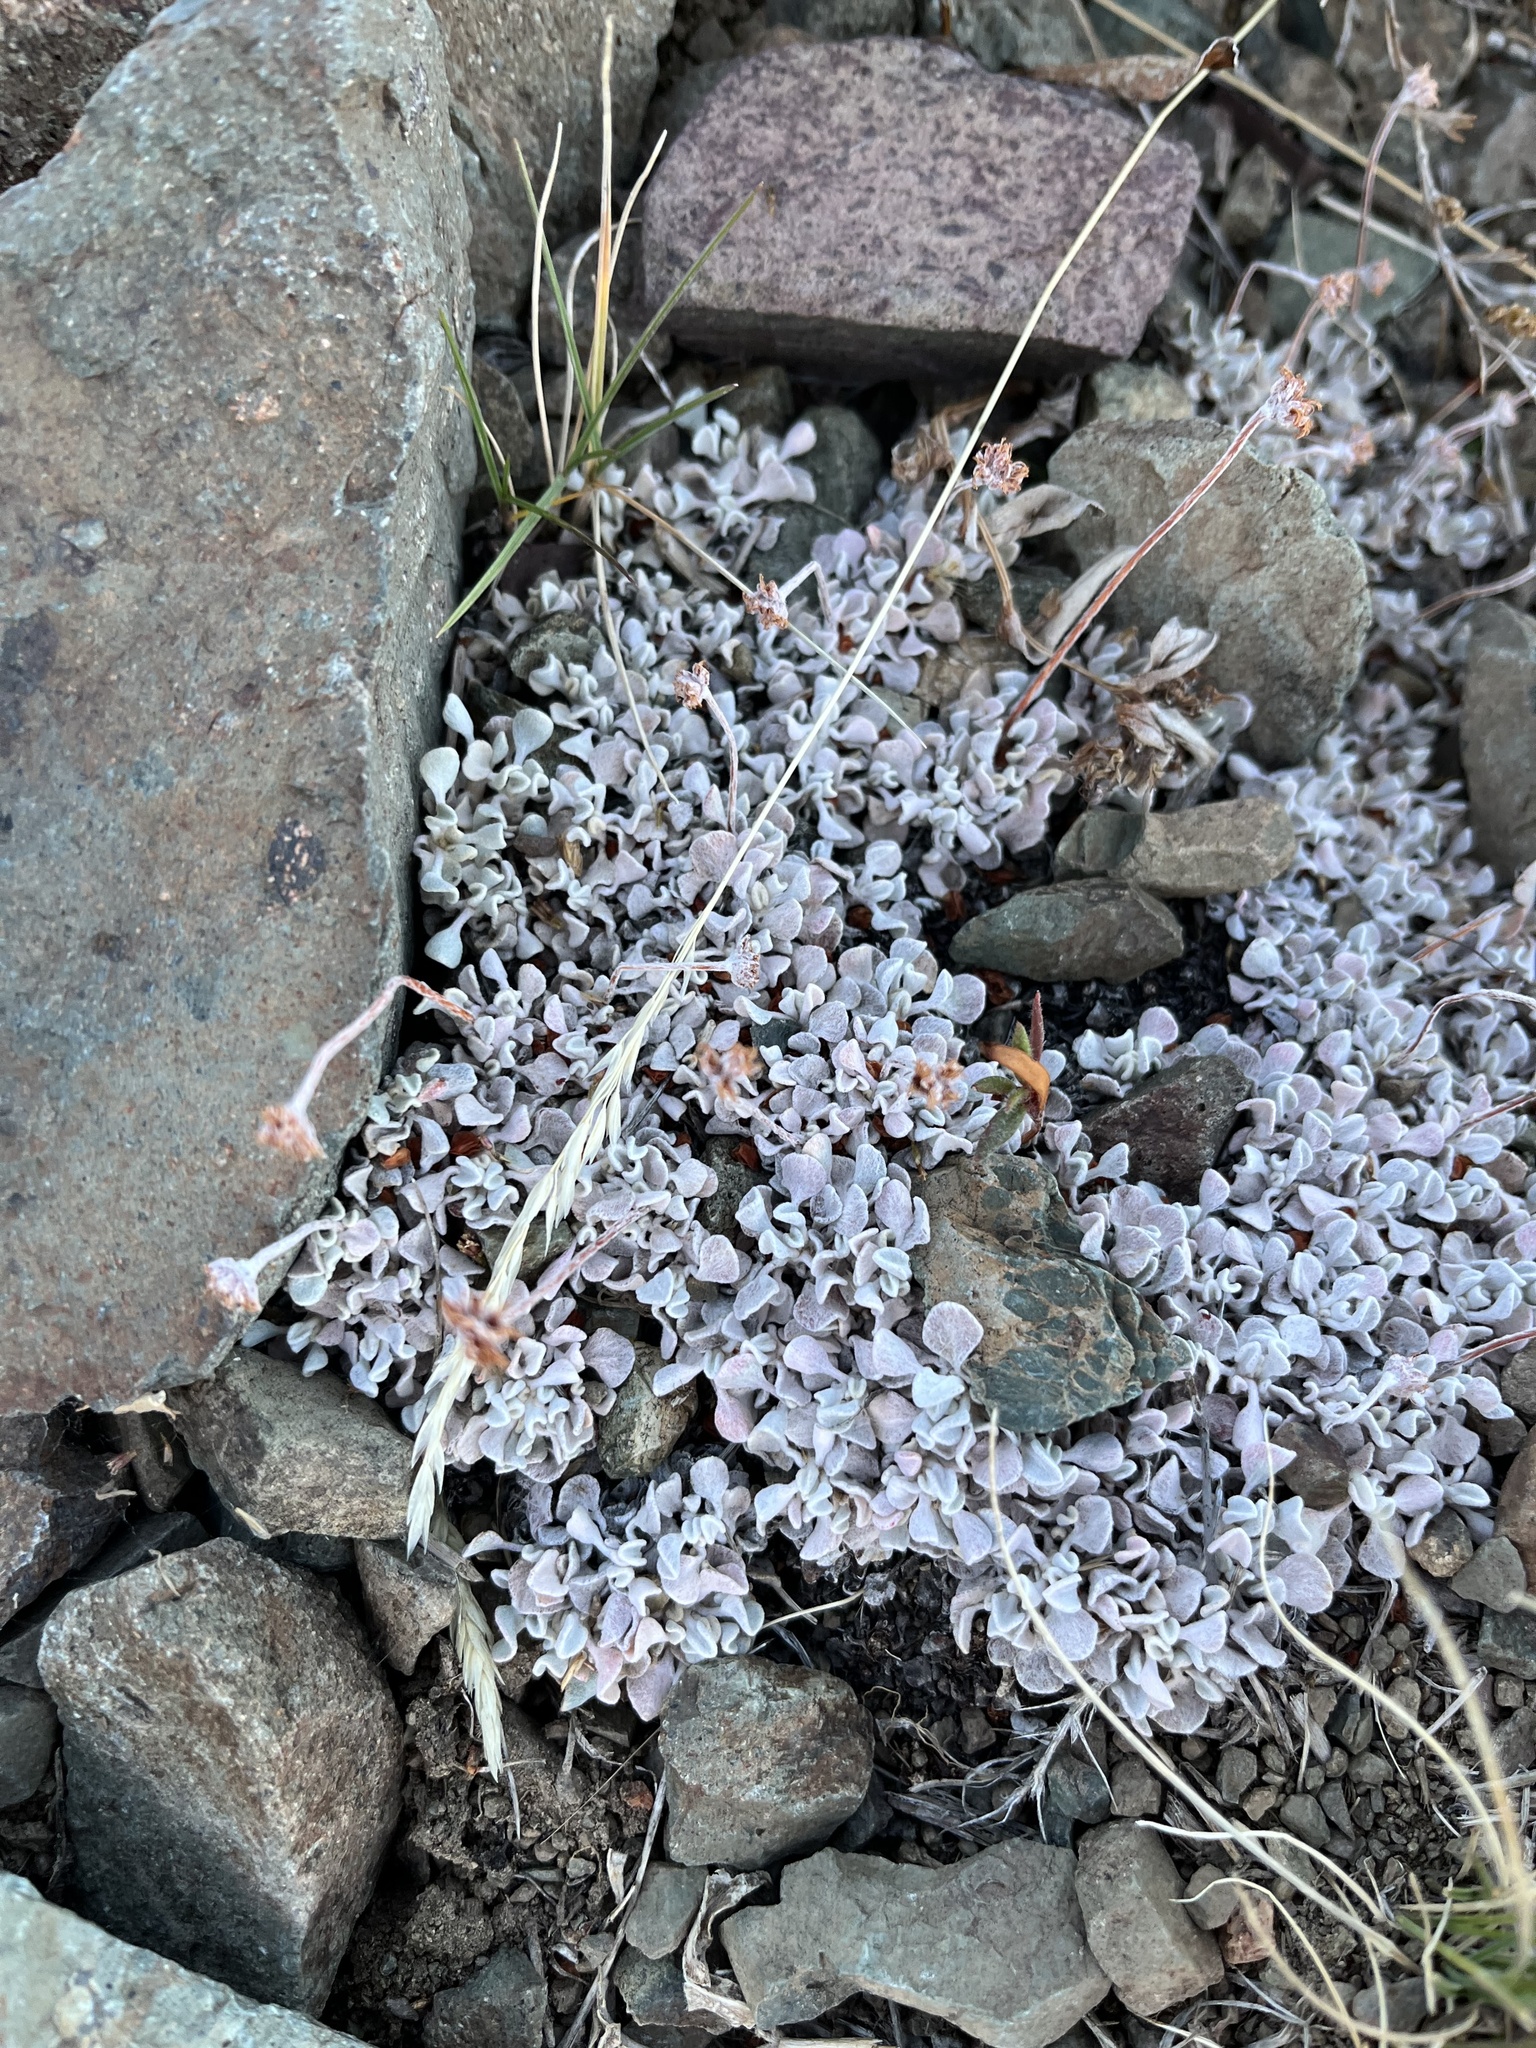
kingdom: Plantae
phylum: Tracheophyta
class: Magnoliopsida
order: Caryophyllales
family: Polygonaceae
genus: Eriogonum
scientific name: Eriogonum ovalifolium
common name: Cushion buckwheat
